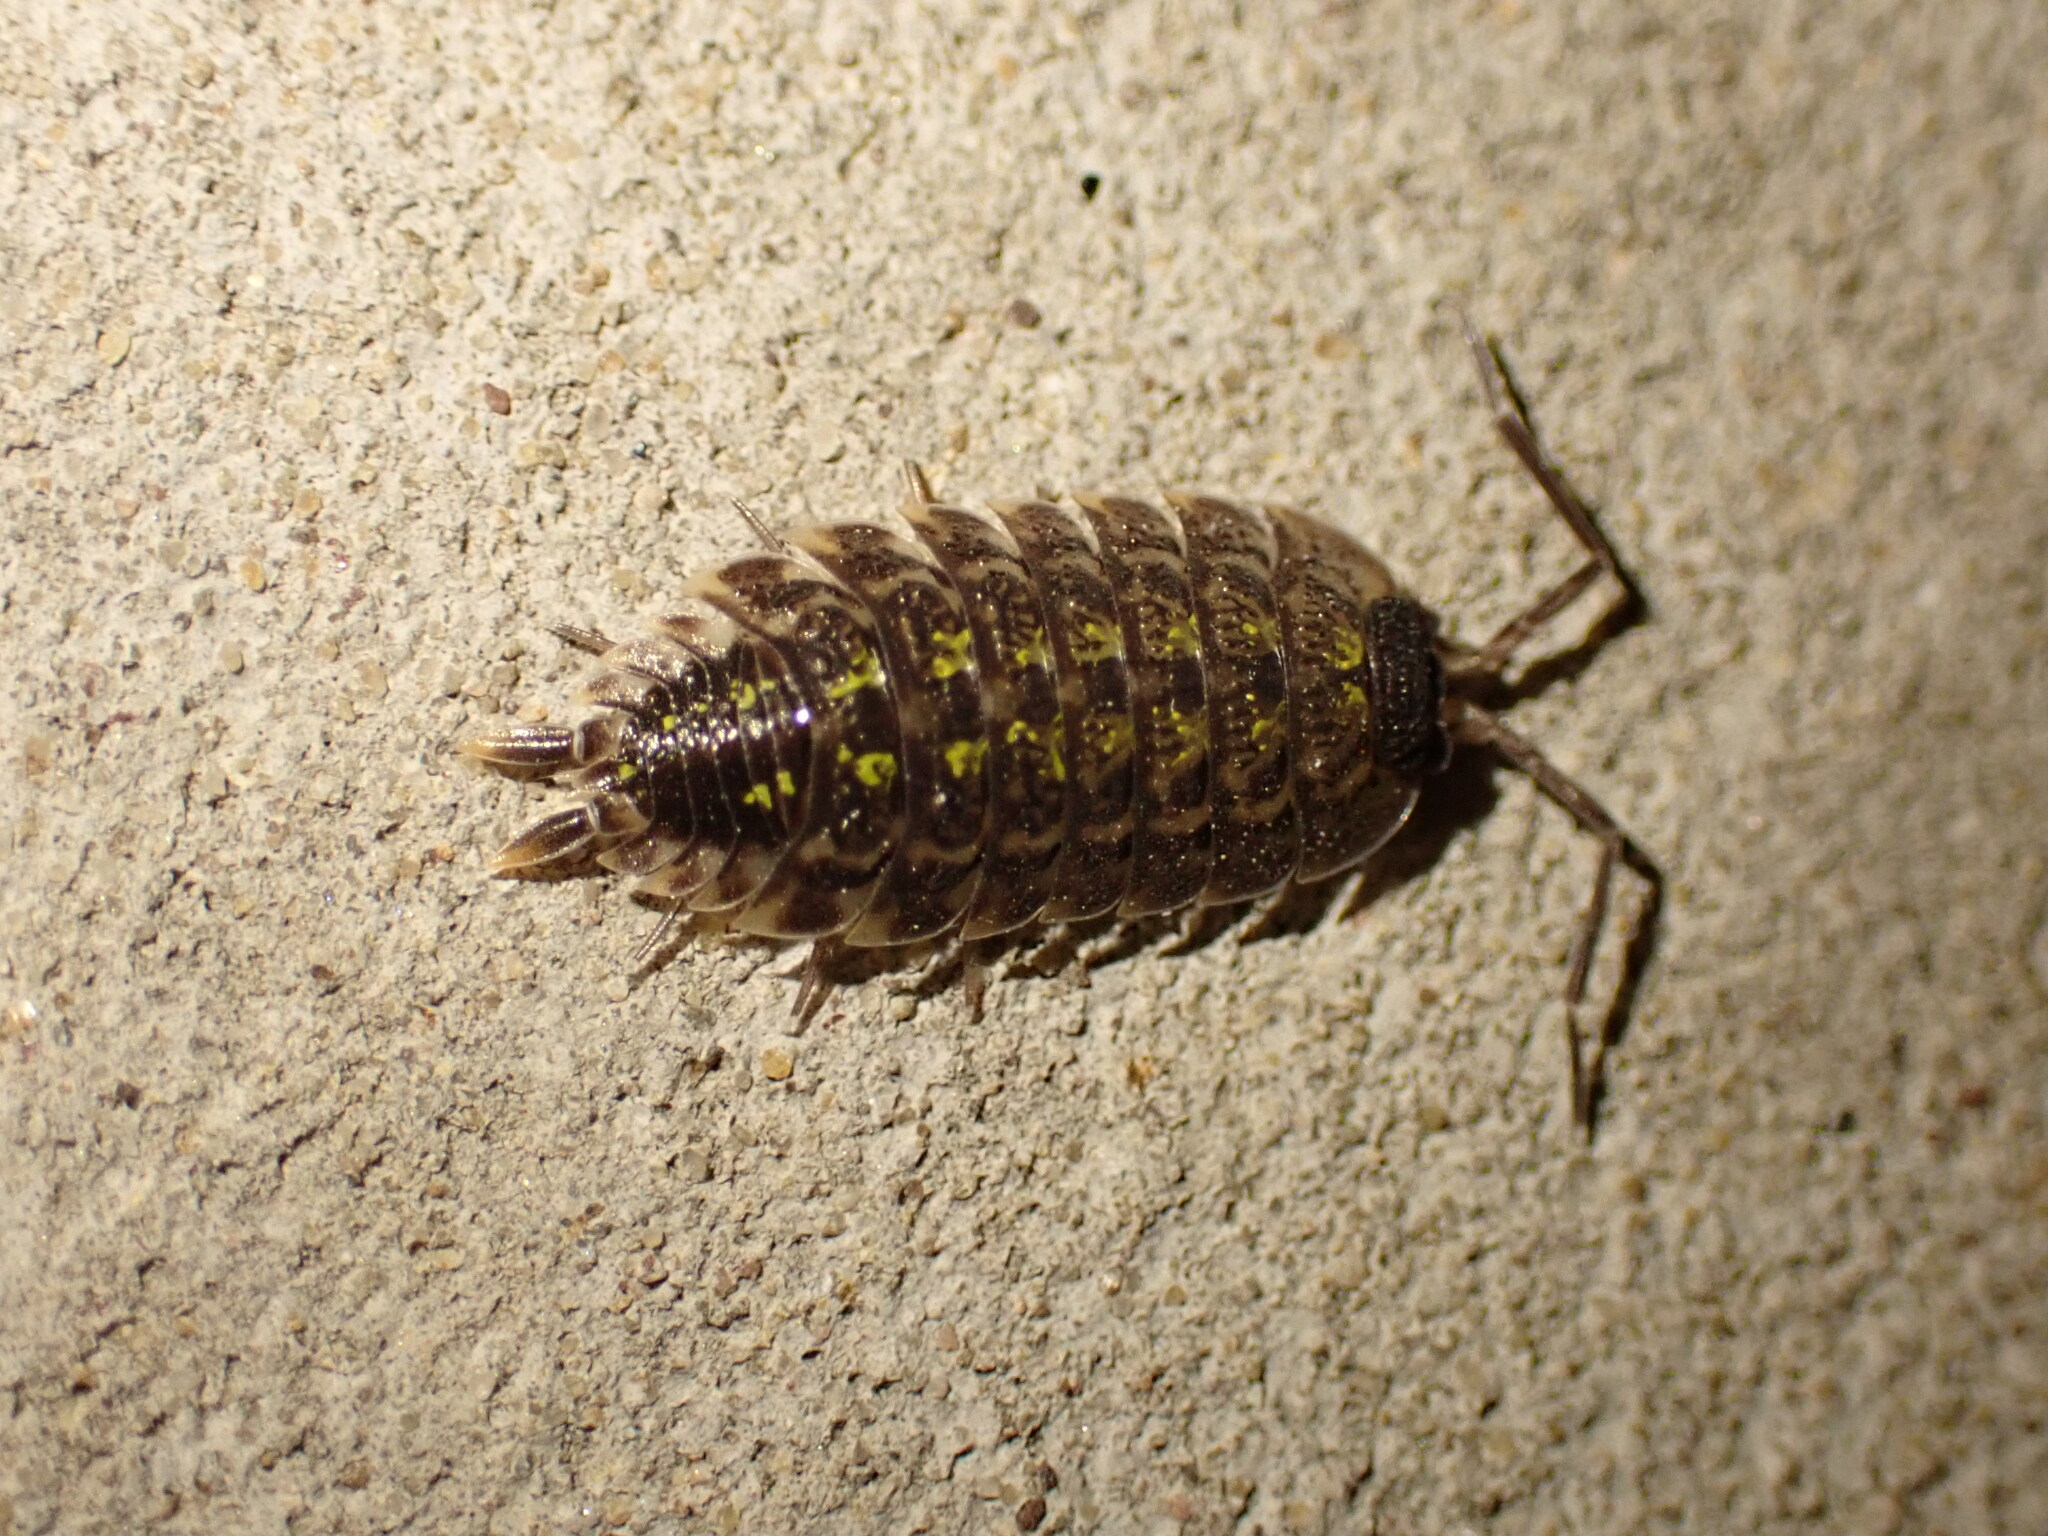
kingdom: Animalia
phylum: Arthropoda
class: Malacostraca
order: Isopoda
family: Porcellionidae
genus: Porcellio
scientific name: Porcellio spinicornis
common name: Painted woodlouse
